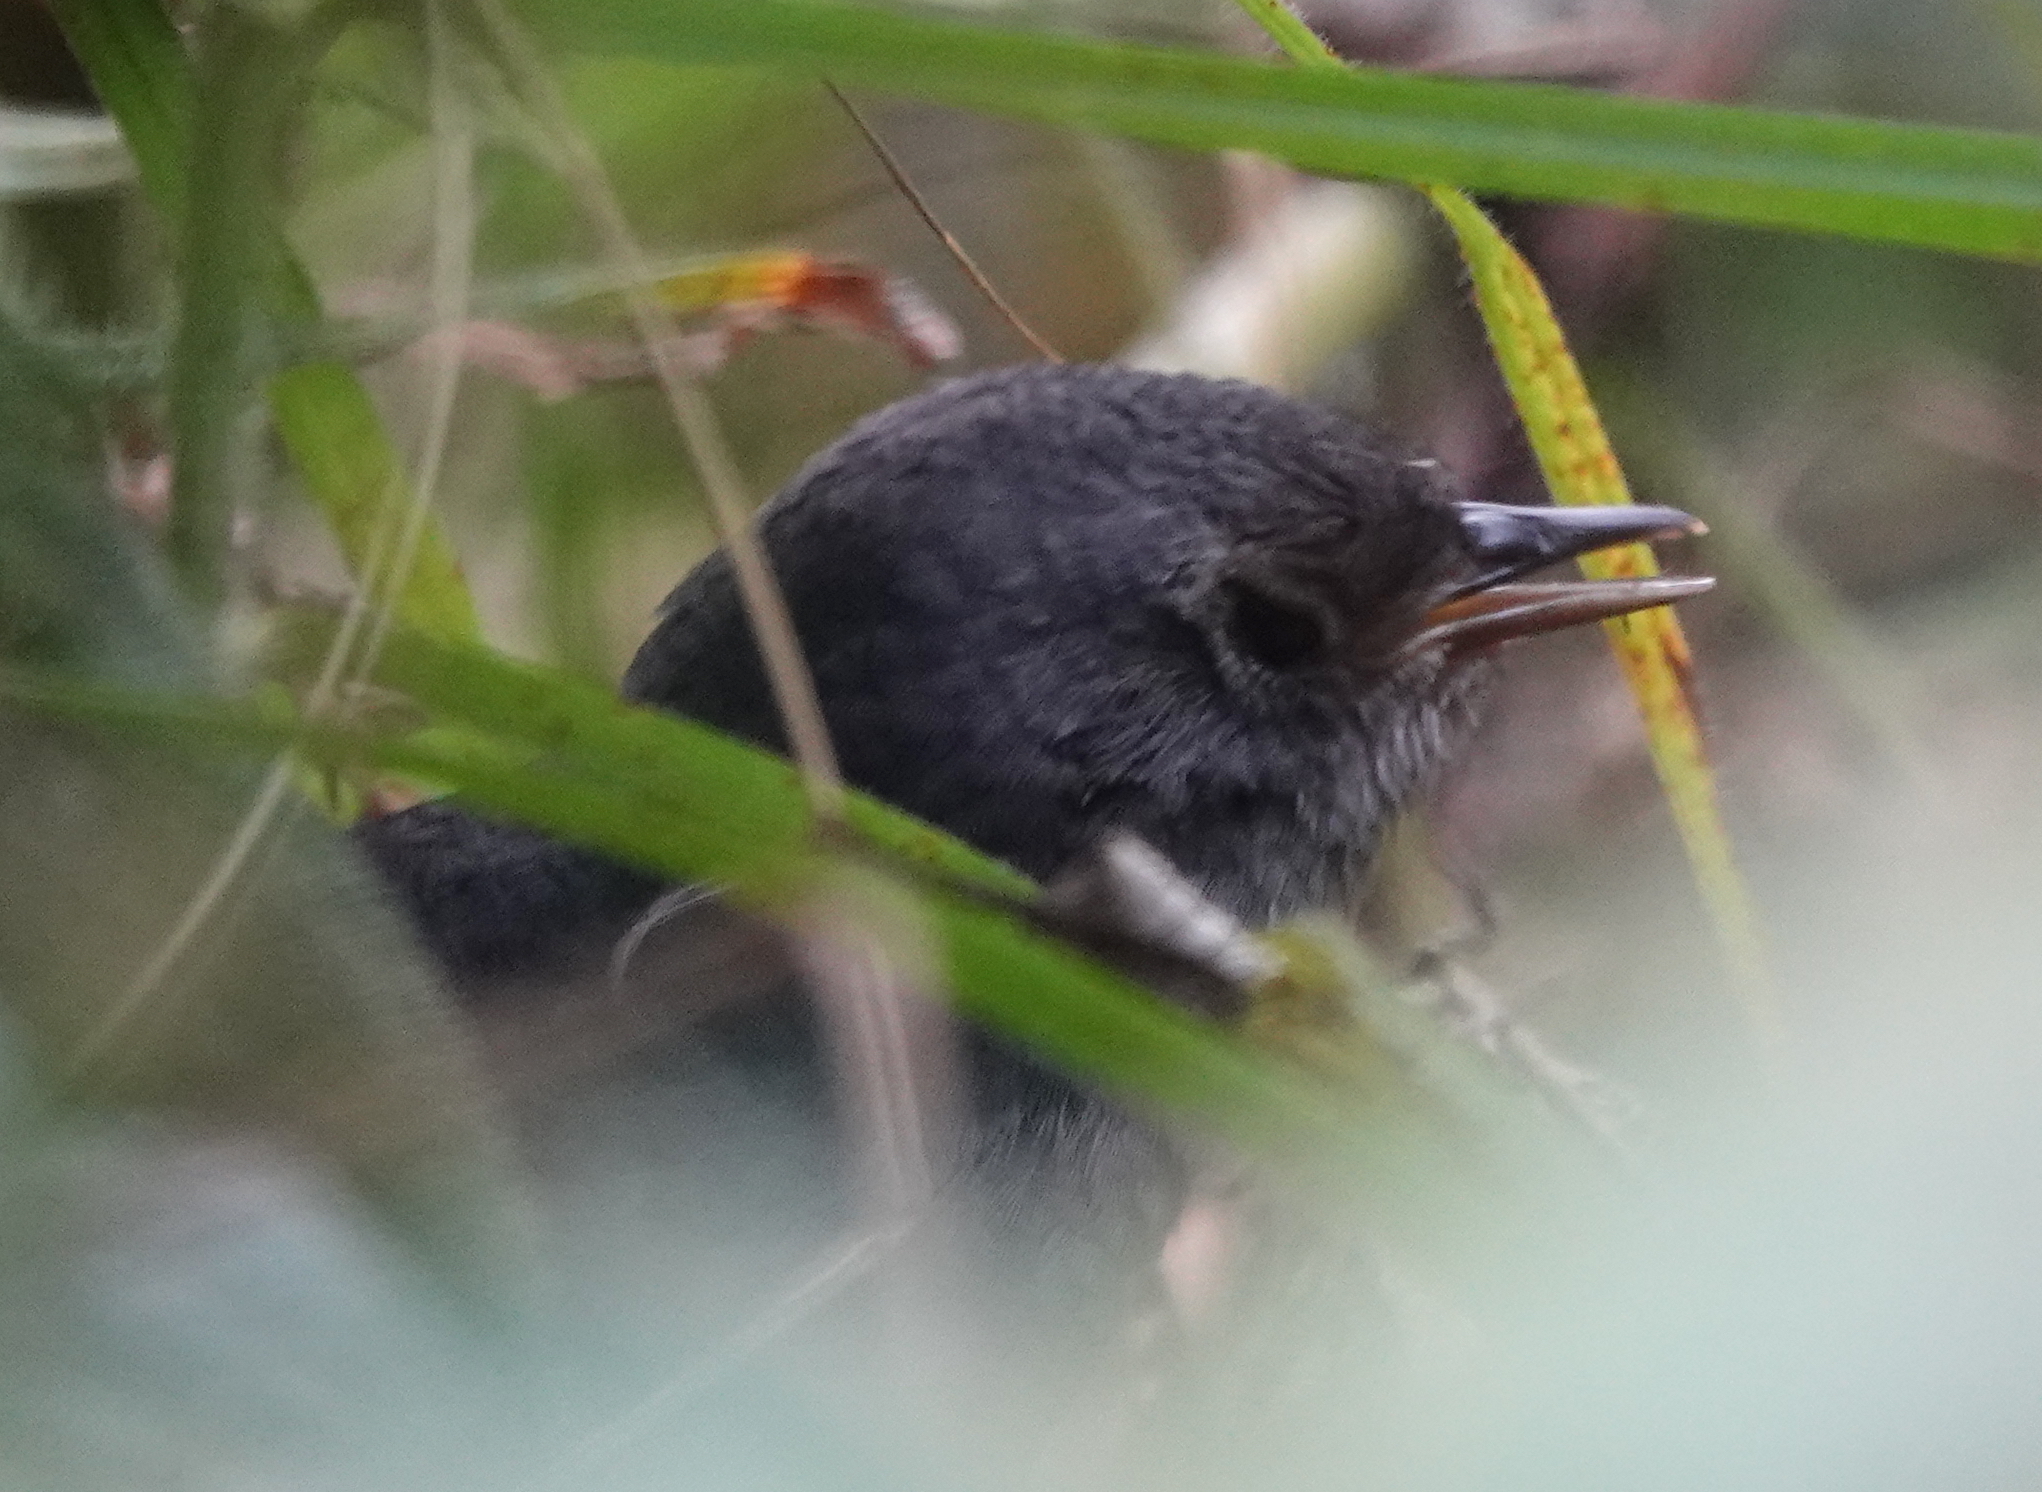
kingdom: Animalia
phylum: Chordata
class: Aves
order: Passeriformes
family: Rhinocryptidae
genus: Scytalopus
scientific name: Scytalopus perijanus
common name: Perija tapaculo
